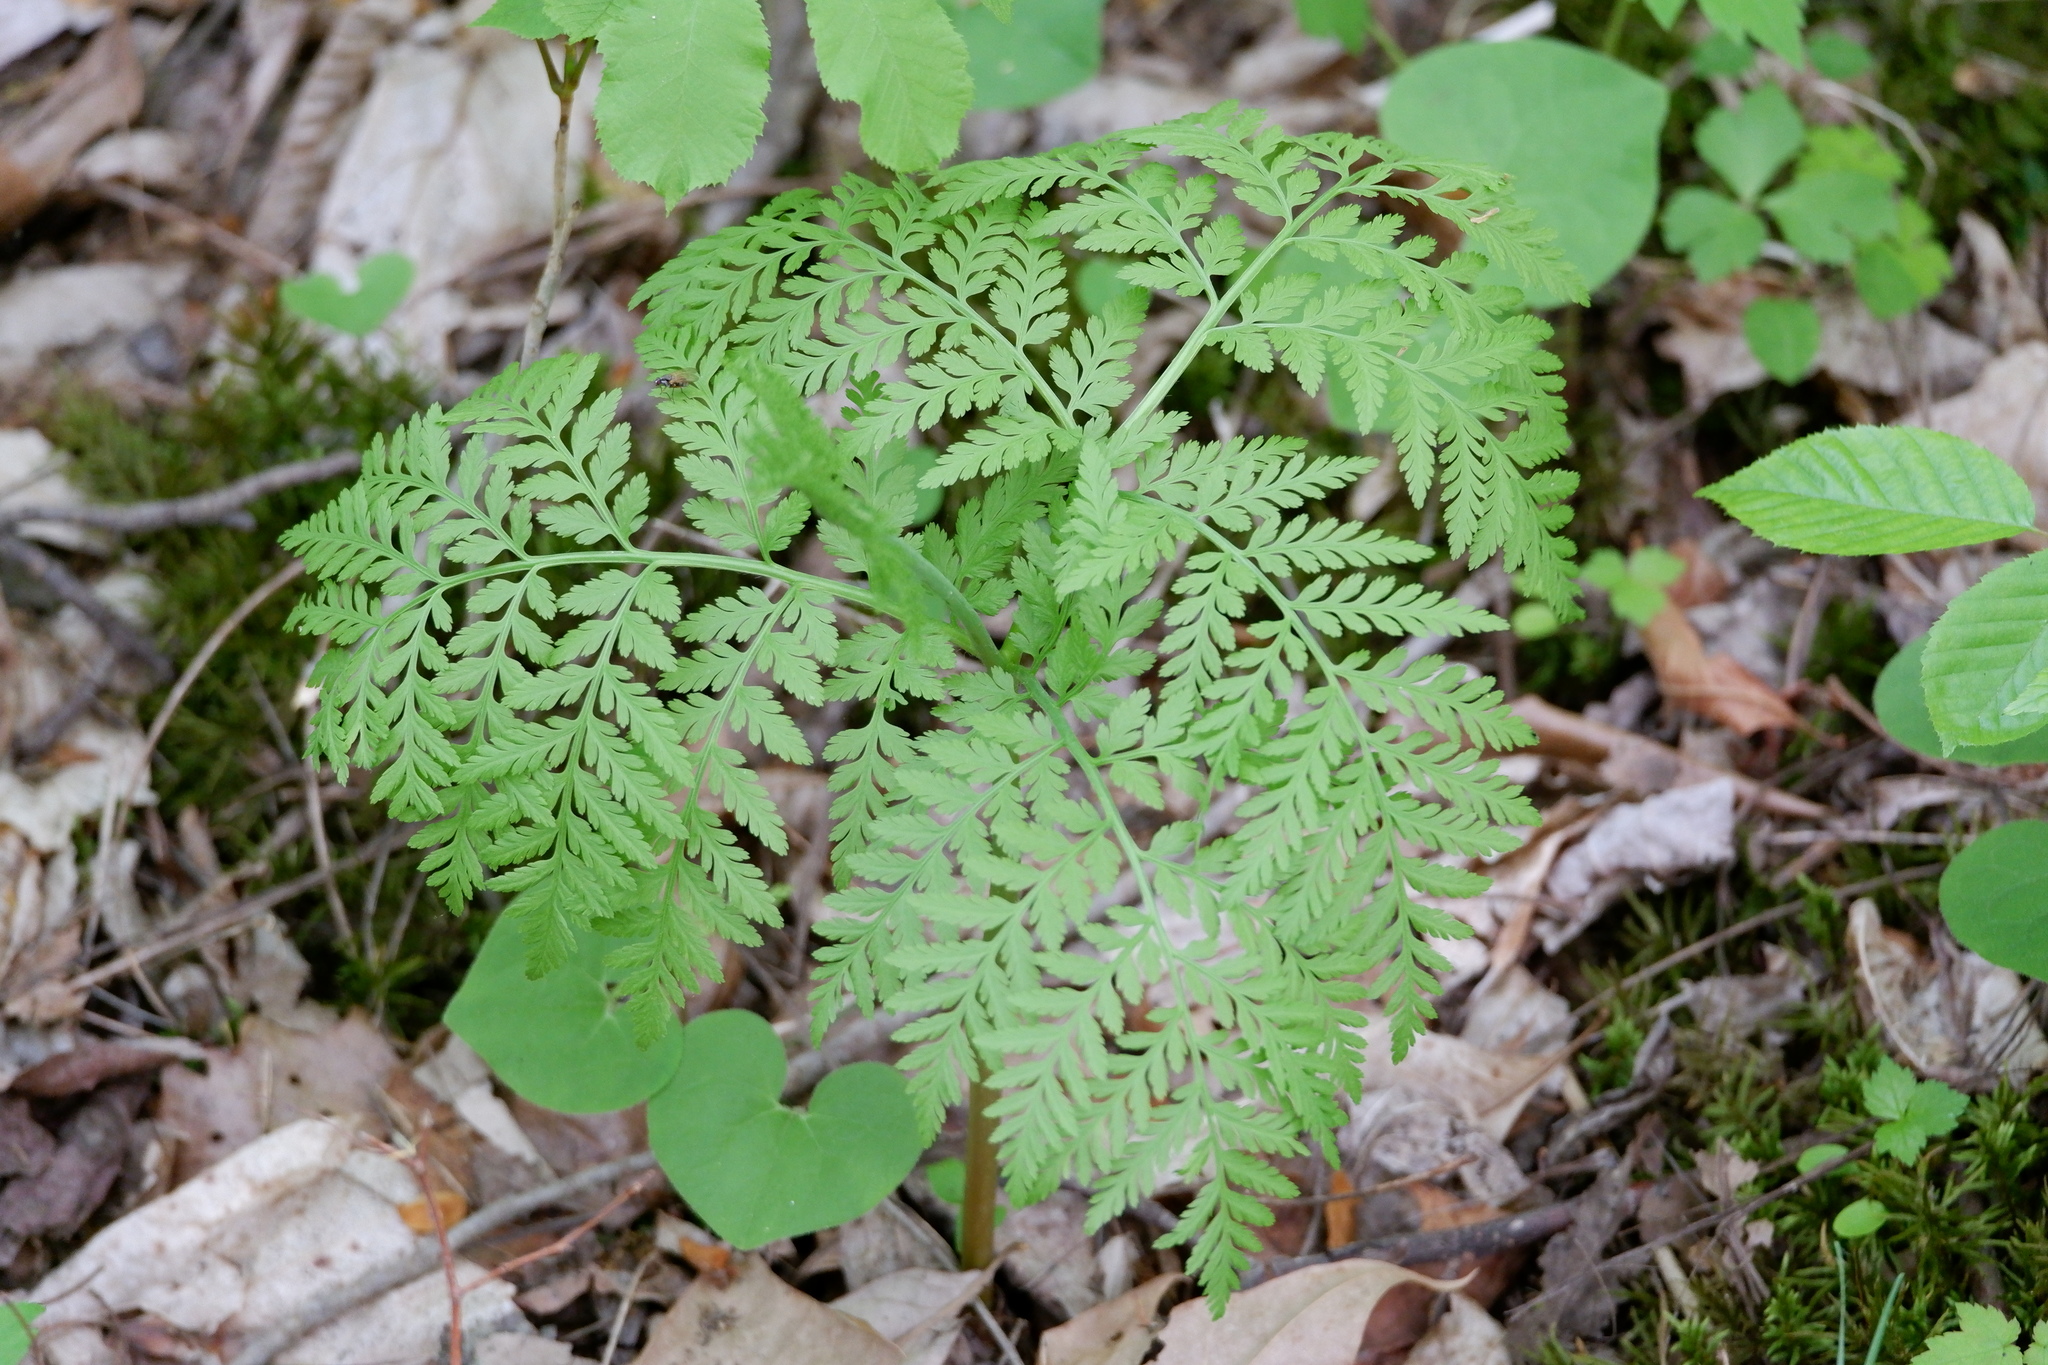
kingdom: Plantae
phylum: Tracheophyta
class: Polypodiopsida
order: Ophioglossales
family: Ophioglossaceae
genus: Botrypus
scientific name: Botrypus virginianus
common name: Common grapefern
